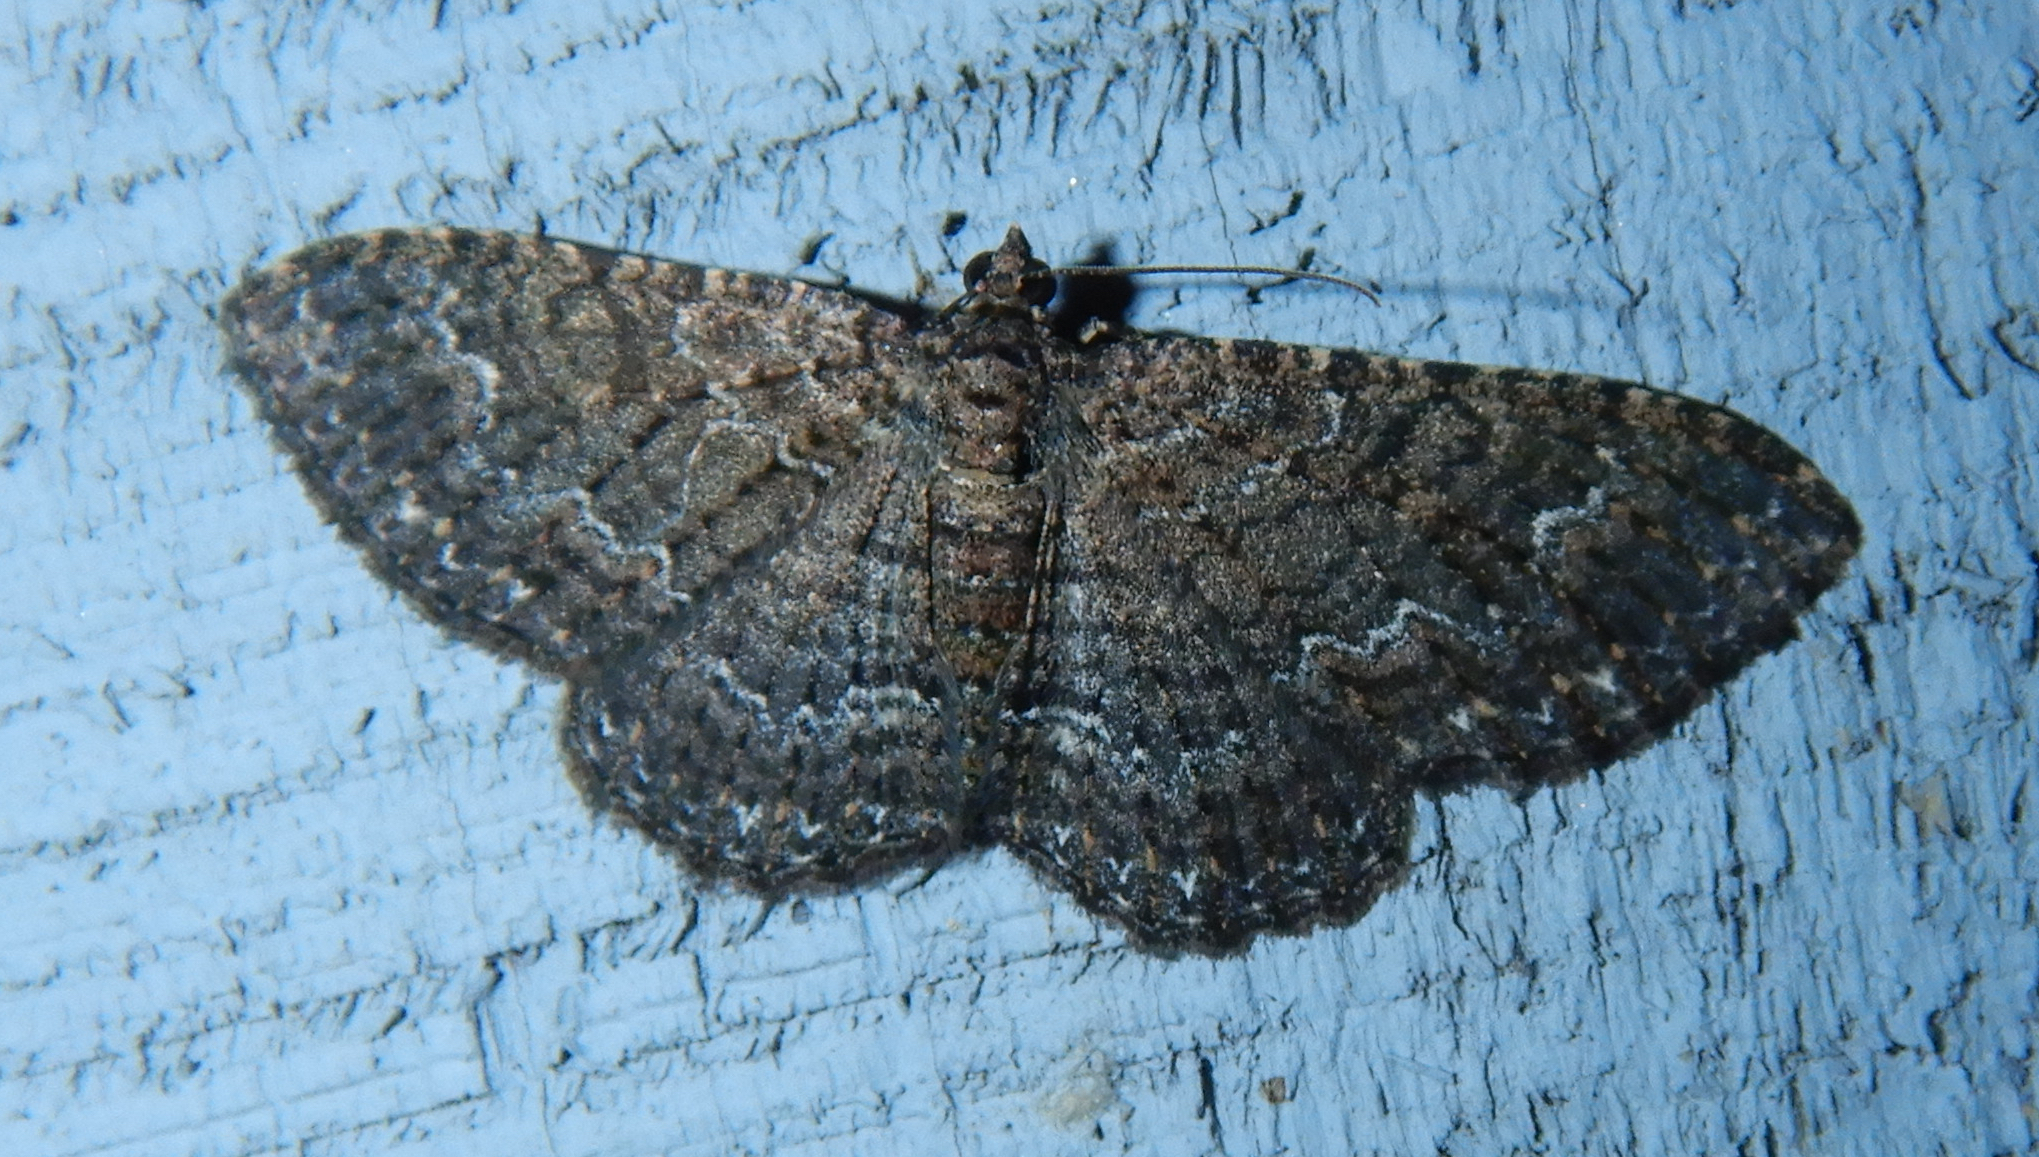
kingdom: Animalia
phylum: Arthropoda
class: Insecta
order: Lepidoptera
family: Geometridae
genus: Disclisioprocta
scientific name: Disclisioprocta stellata
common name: Somber carpet
